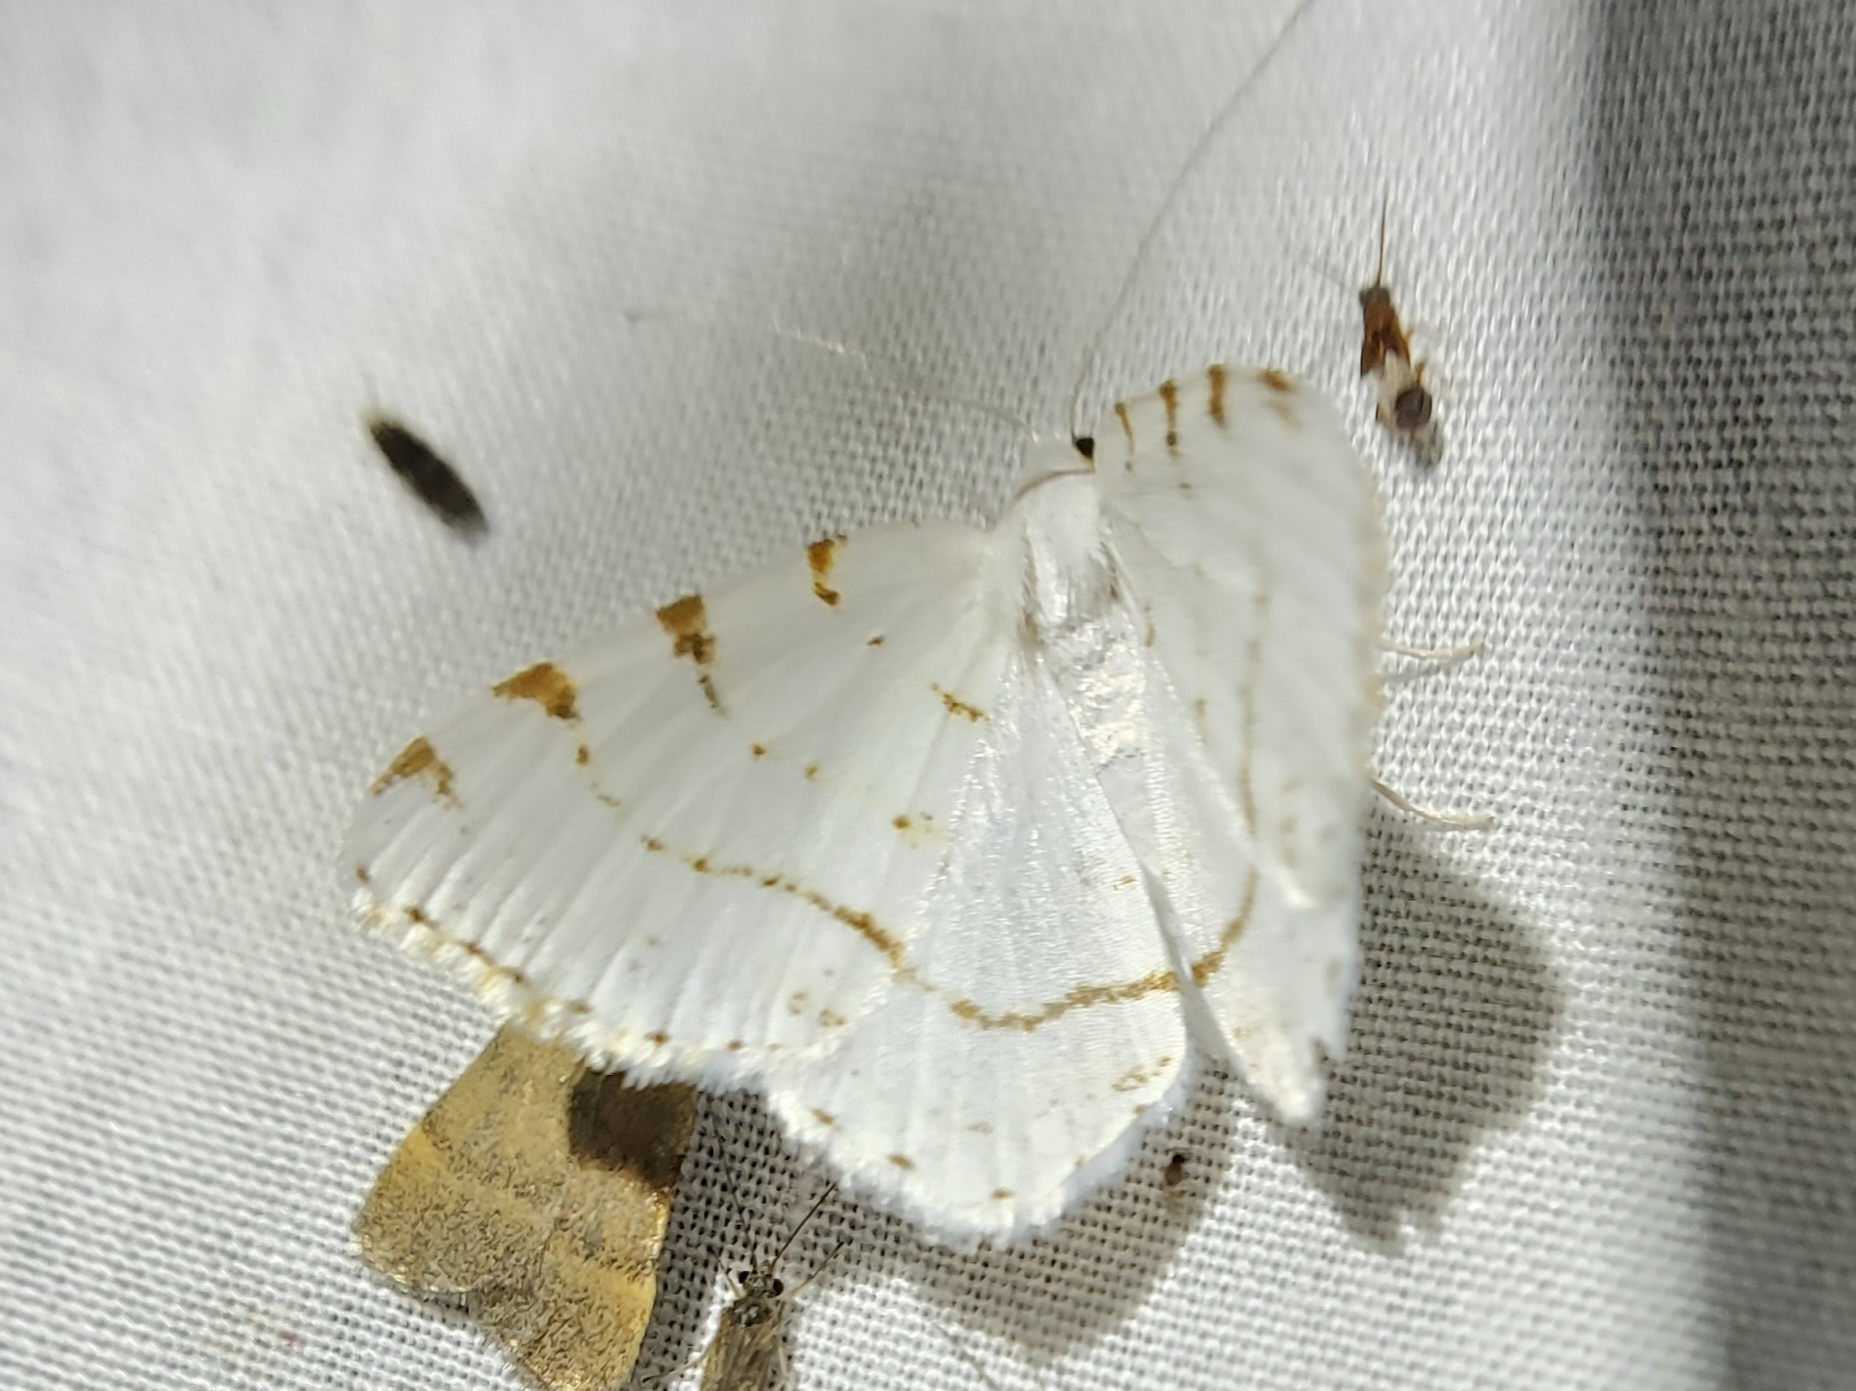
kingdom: Animalia
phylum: Arthropoda
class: Insecta
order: Lepidoptera
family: Geometridae
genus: Macaria
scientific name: Macaria pustularia
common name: Lesser maple spanworm moth
